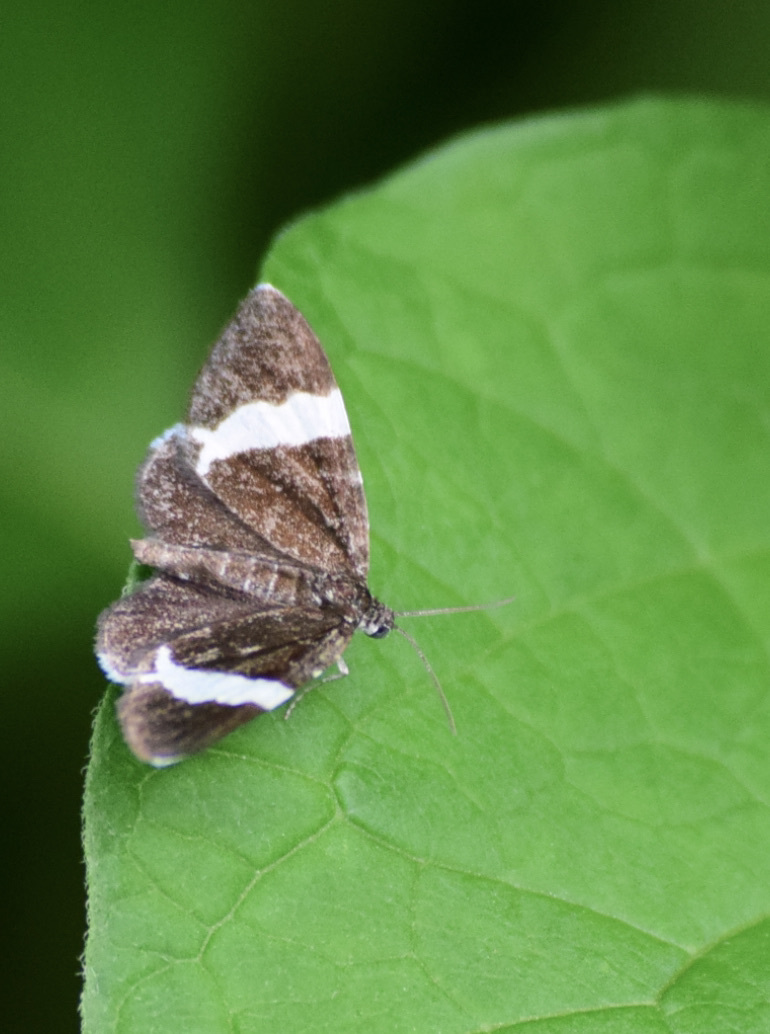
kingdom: Animalia
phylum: Arthropoda
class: Insecta
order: Lepidoptera
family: Geometridae
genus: Trichodezia
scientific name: Trichodezia albovittata
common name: White striped black
